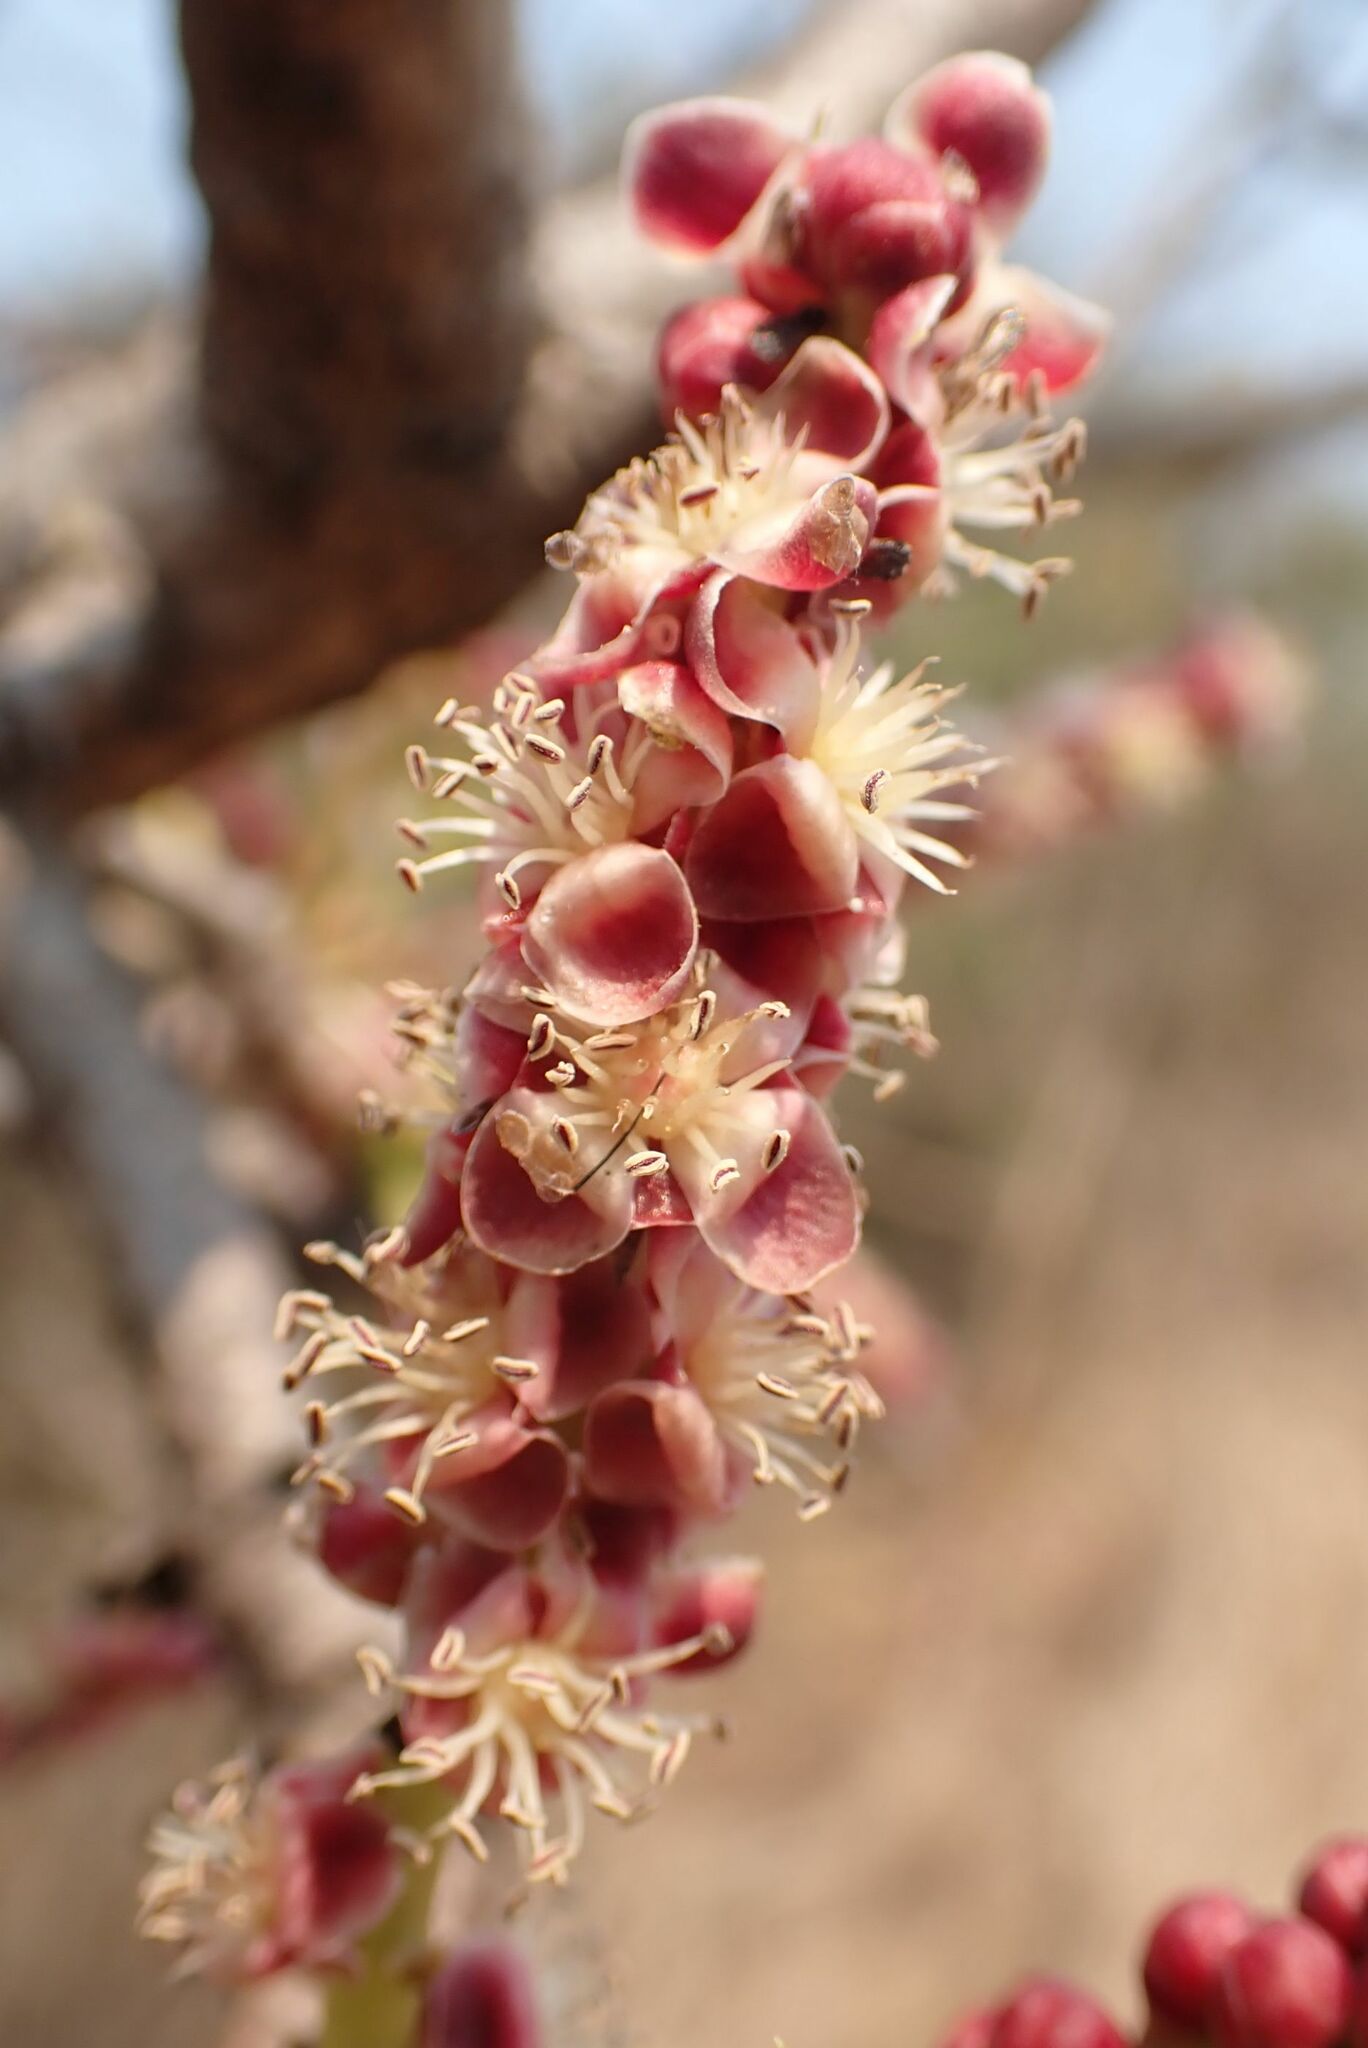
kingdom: Plantae
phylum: Tracheophyta
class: Magnoliopsida
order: Sapindales
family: Anacardiaceae
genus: Sclerocarya
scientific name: Sclerocarya birrea
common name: Marula
